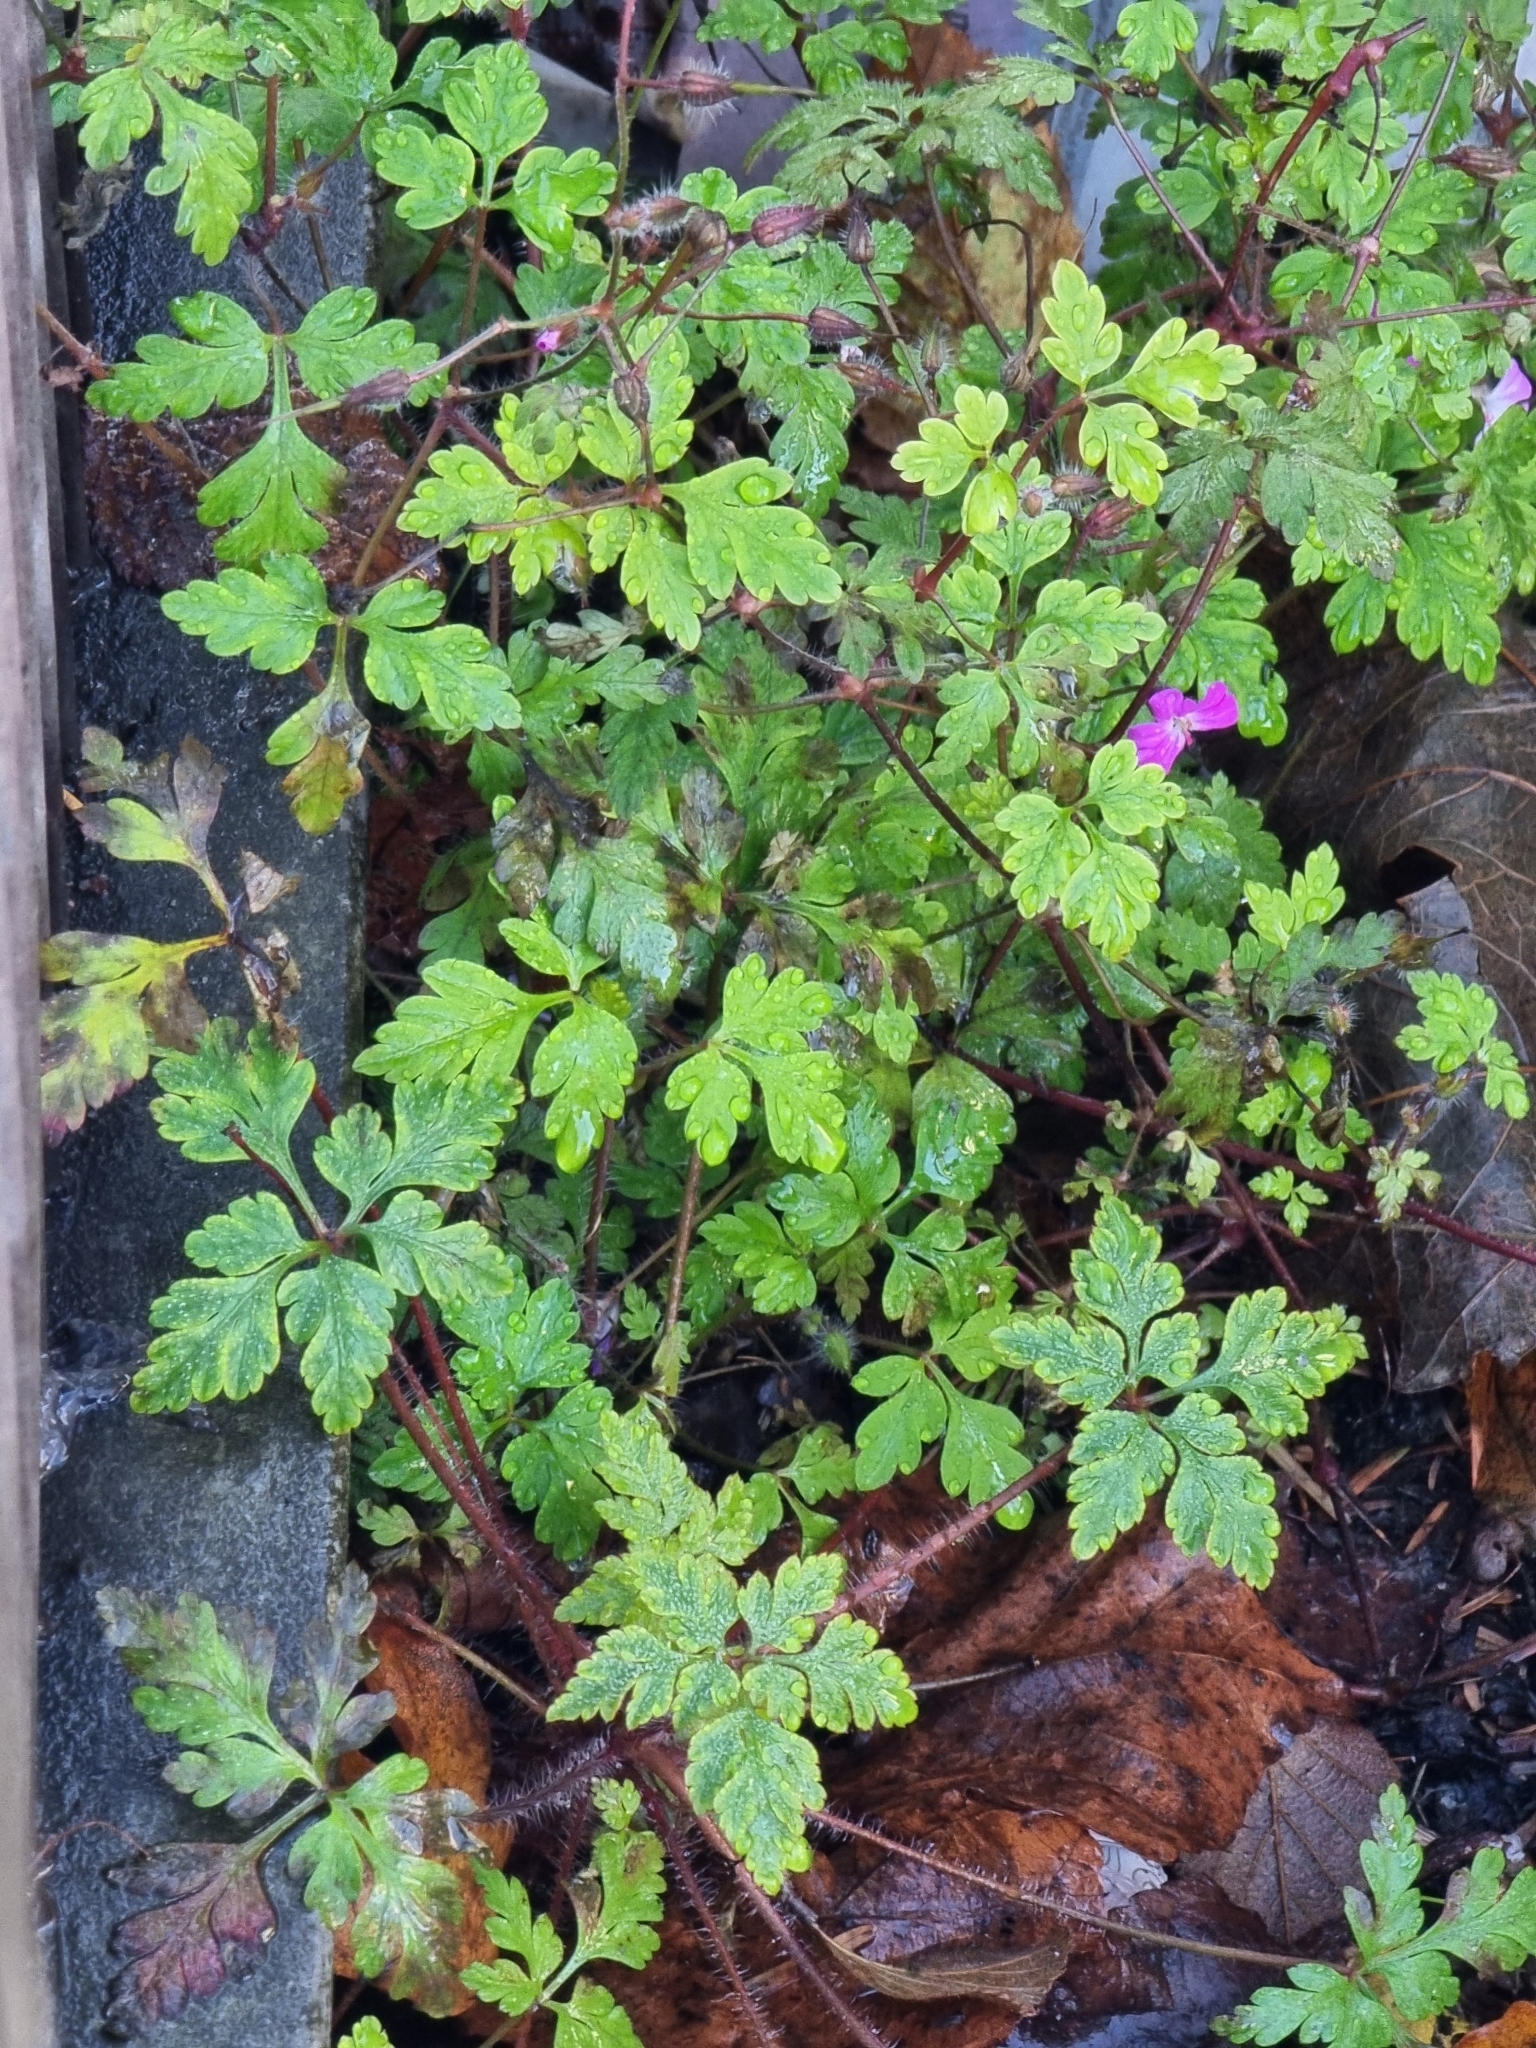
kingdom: Plantae
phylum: Tracheophyta
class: Magnoliopsida
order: Geraniales
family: Geraniaceae
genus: Geranium
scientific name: Geranium robertianum
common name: Herb-robert
